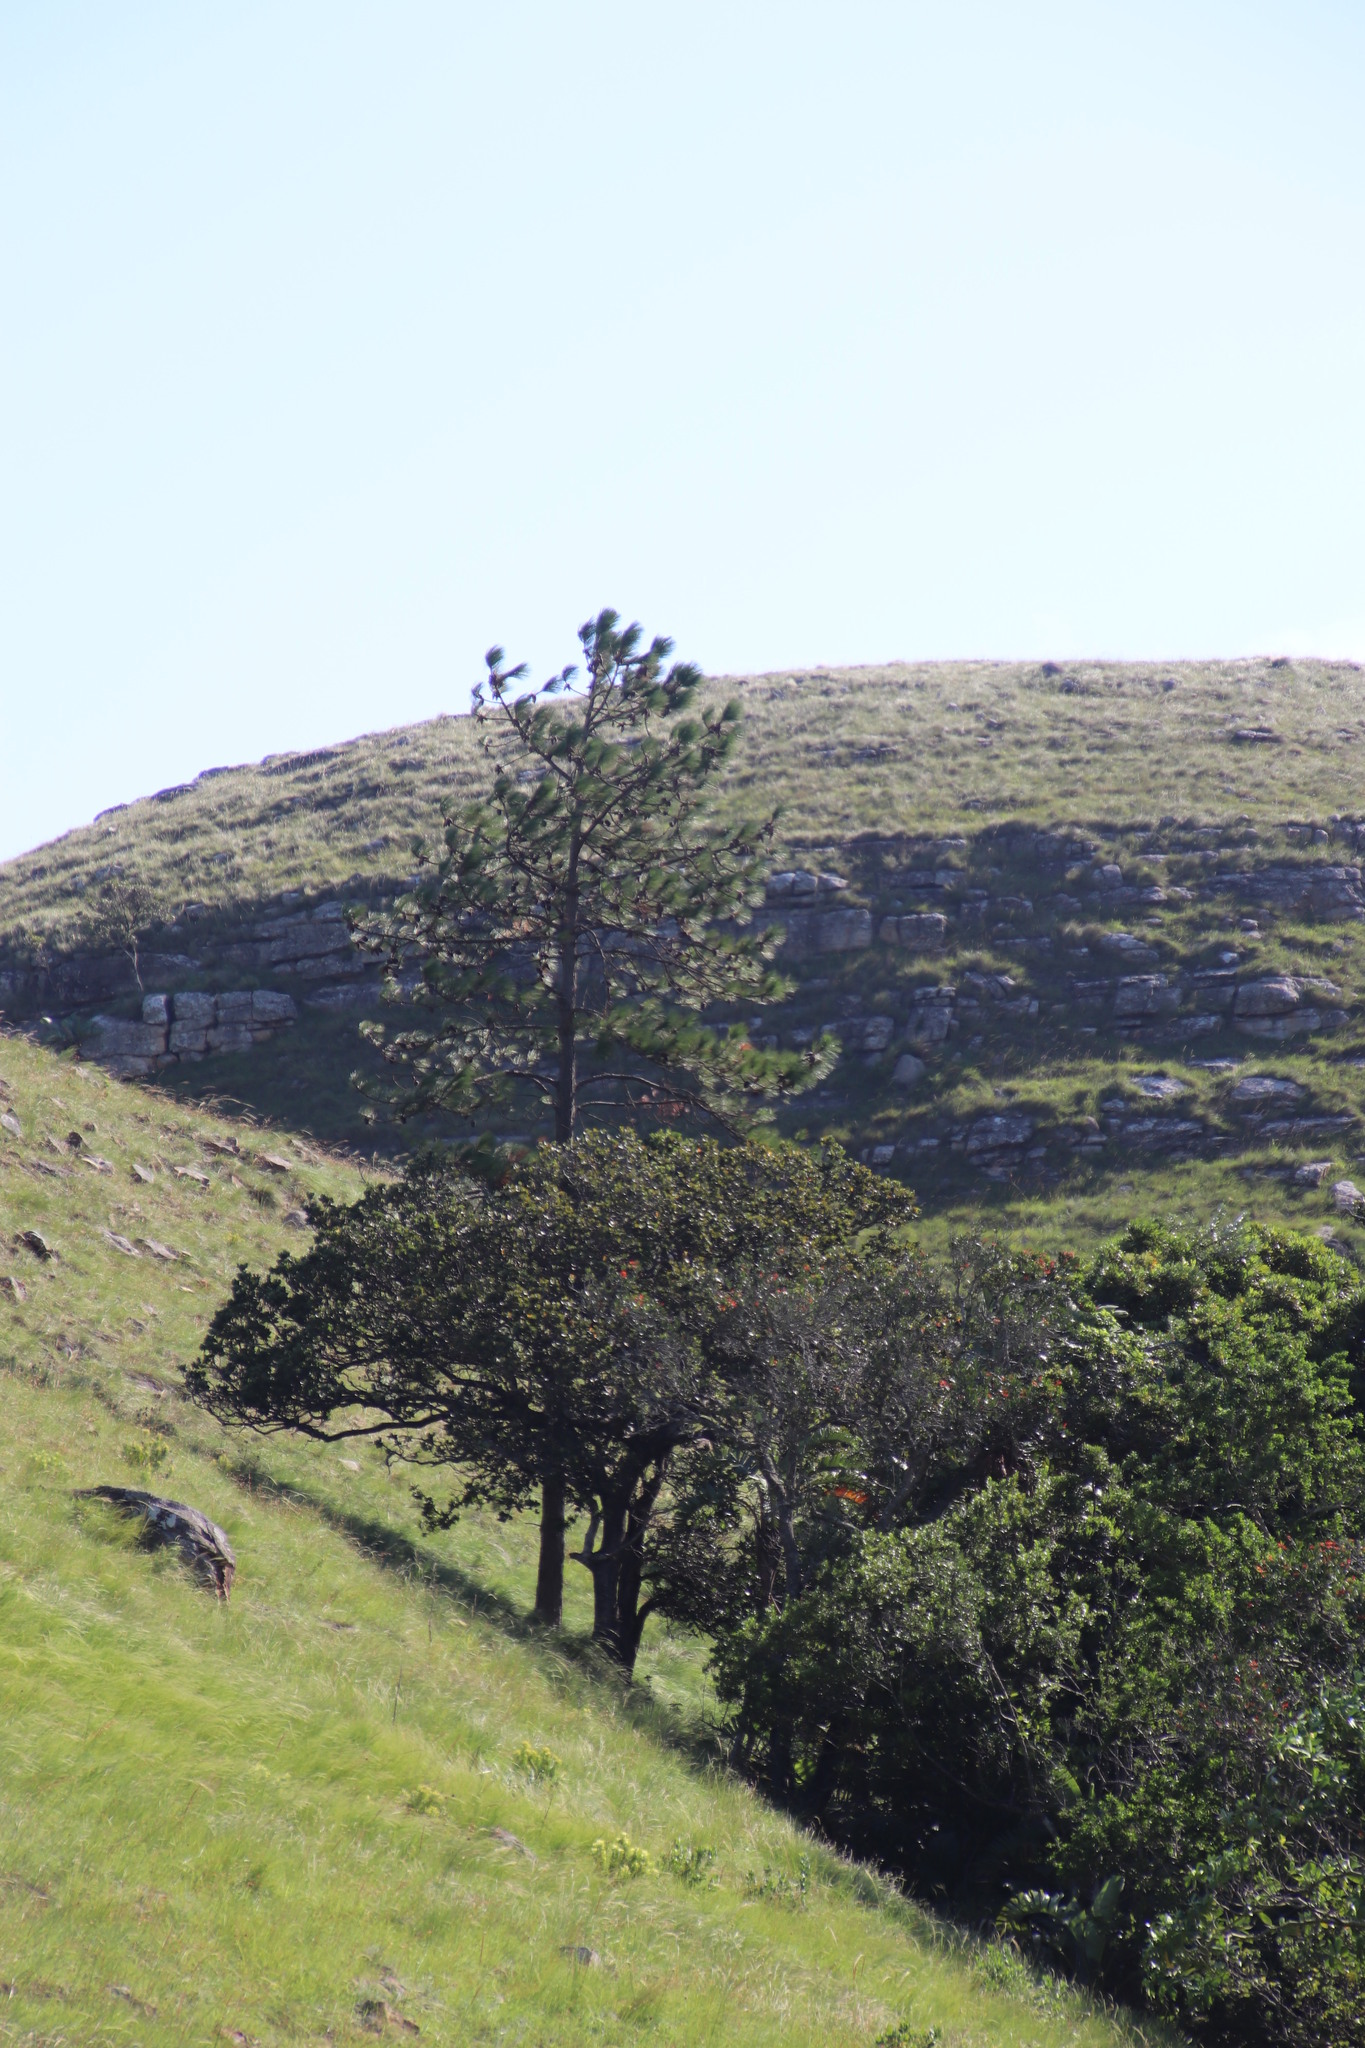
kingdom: Plantae
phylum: Tracheophyta
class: Pinopsida
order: Pinales
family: Pinaceae
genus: Pinus
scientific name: Pinus elliottii
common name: Slash pine
